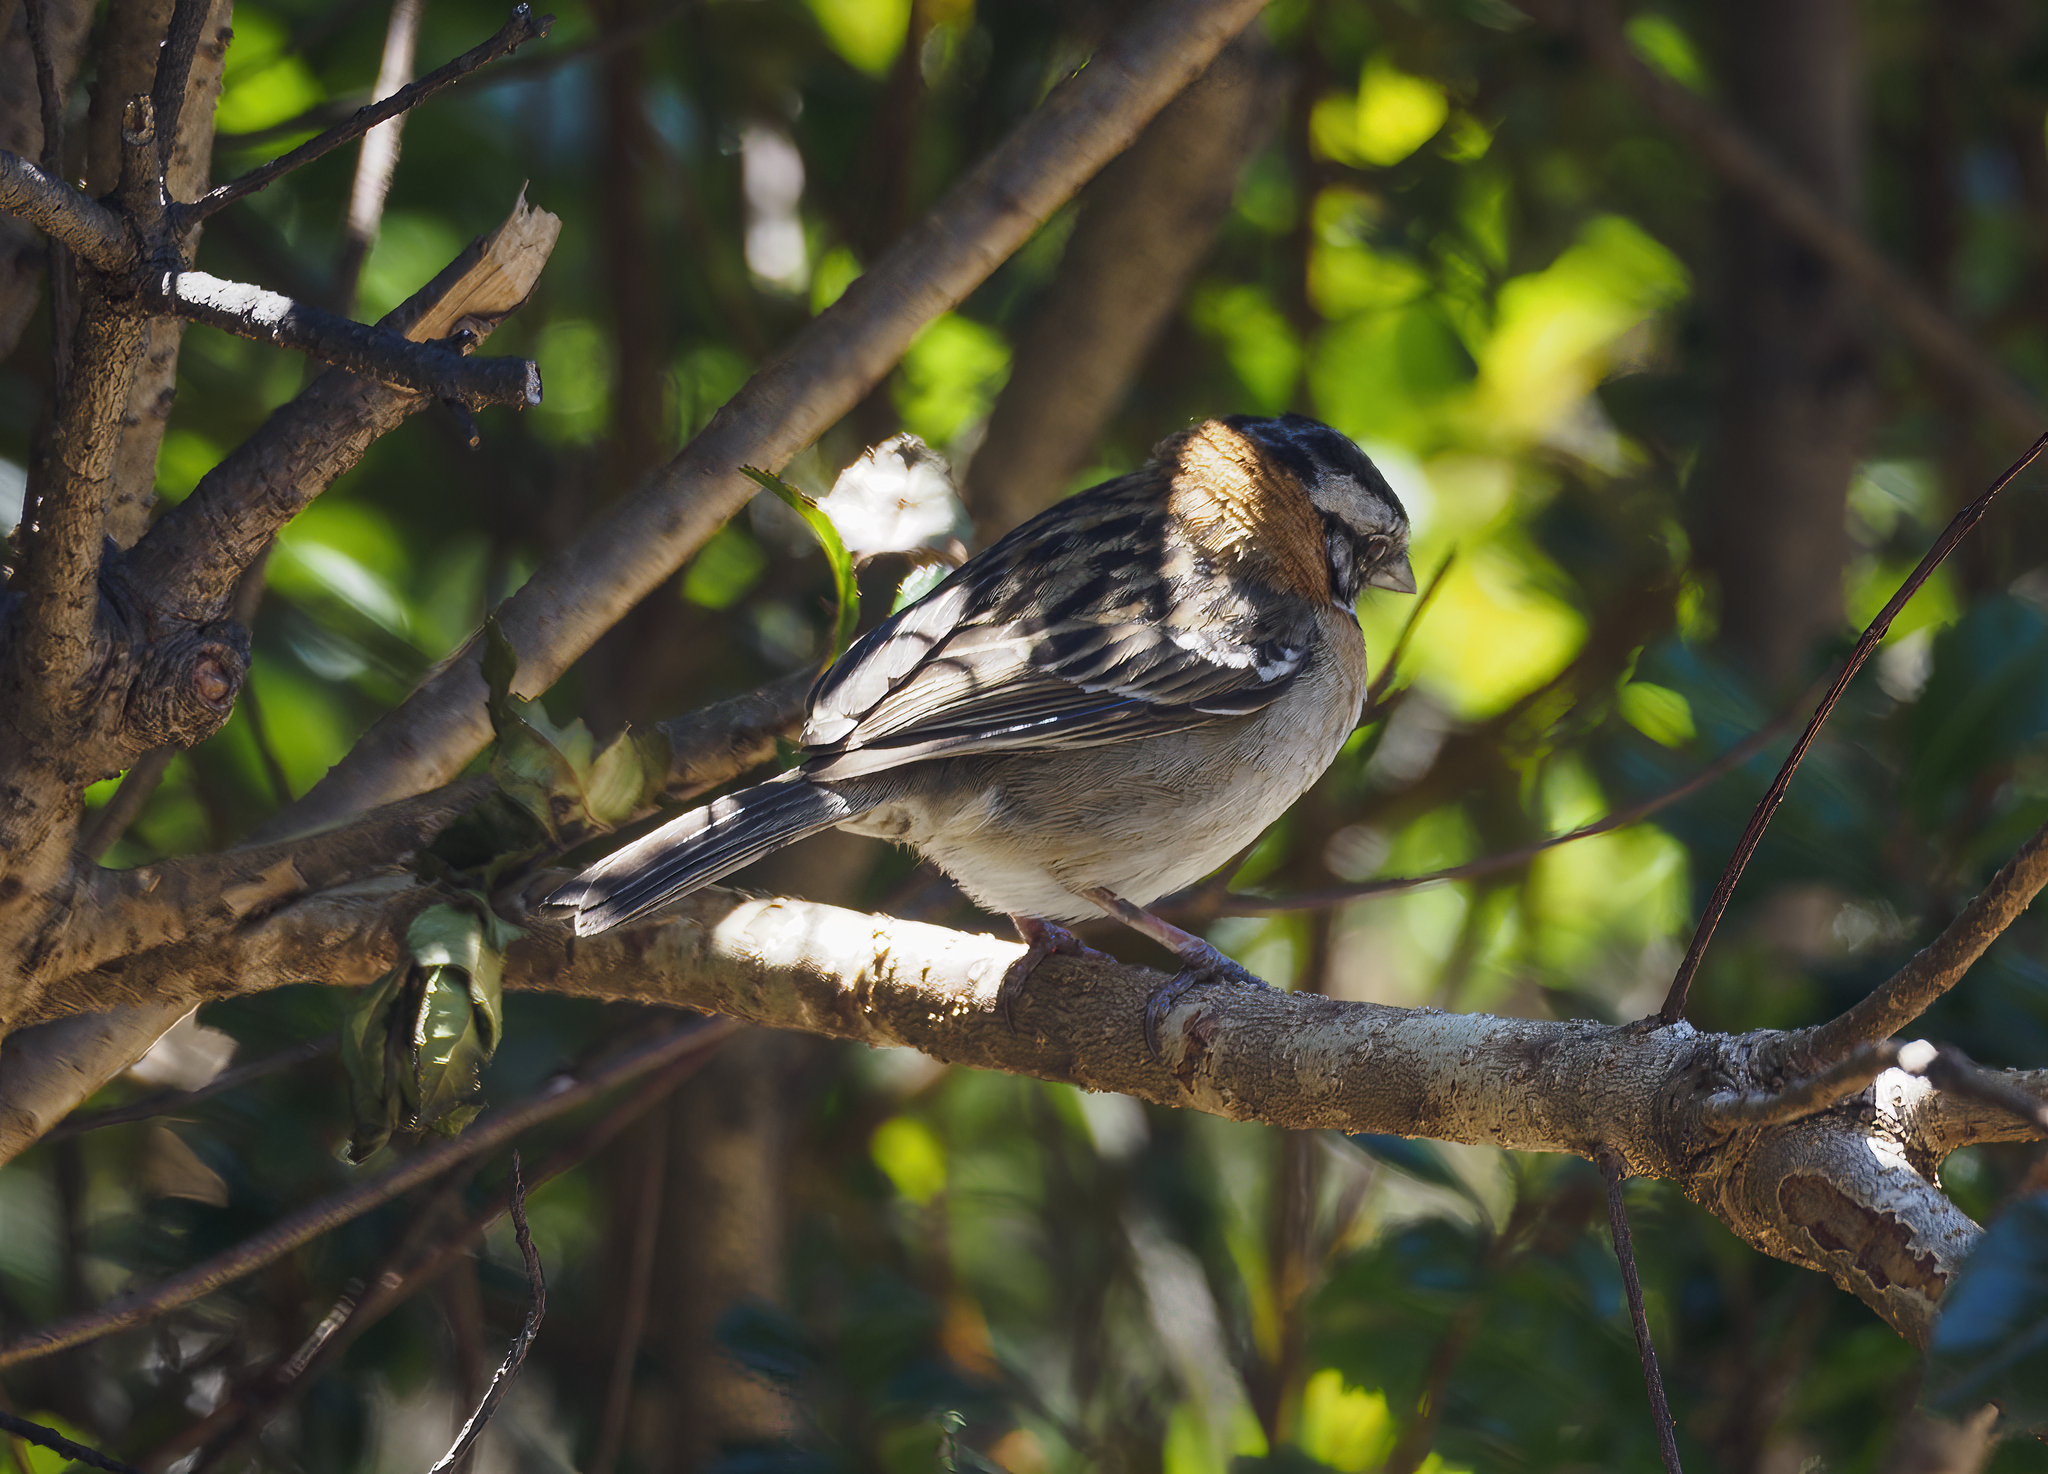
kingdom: Animalia
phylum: Chordata
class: Aves
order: Passeriformes
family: Passerellidae
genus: Zonotrichia
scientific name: Zonotrichia capensis
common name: Rufous-collared sparrow
